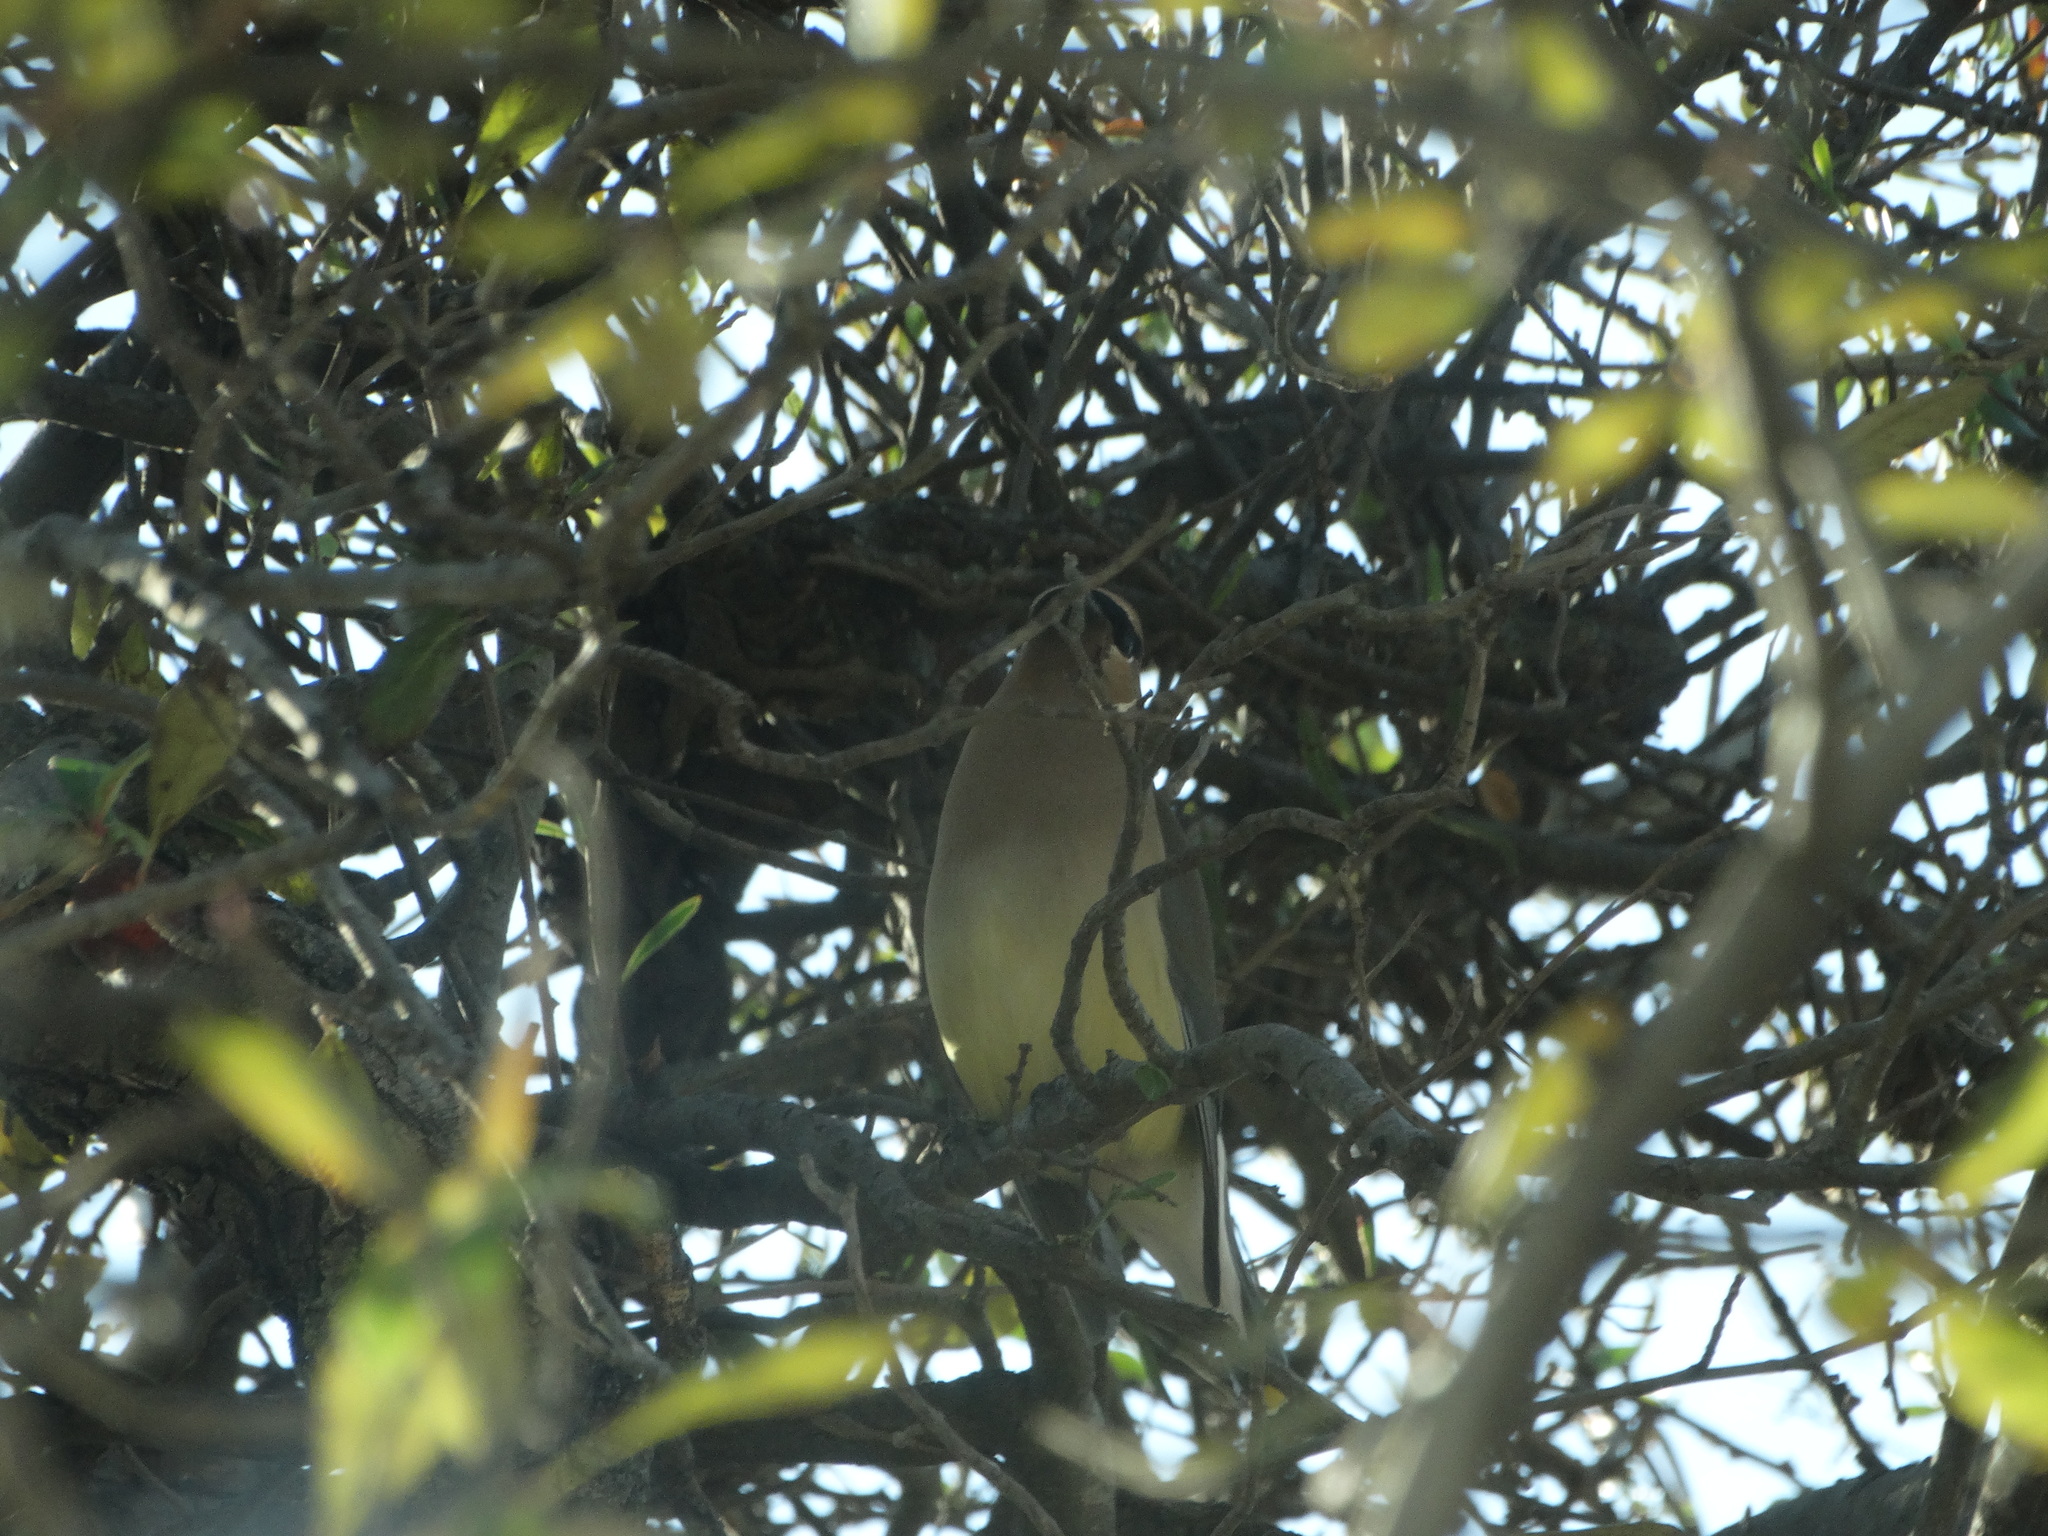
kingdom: Animalia
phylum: Chordata
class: Aves
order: Passeriformes
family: Bombycillidae
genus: Bombycilla
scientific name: Bombycilla cedrorum
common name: Cedar waxwing
